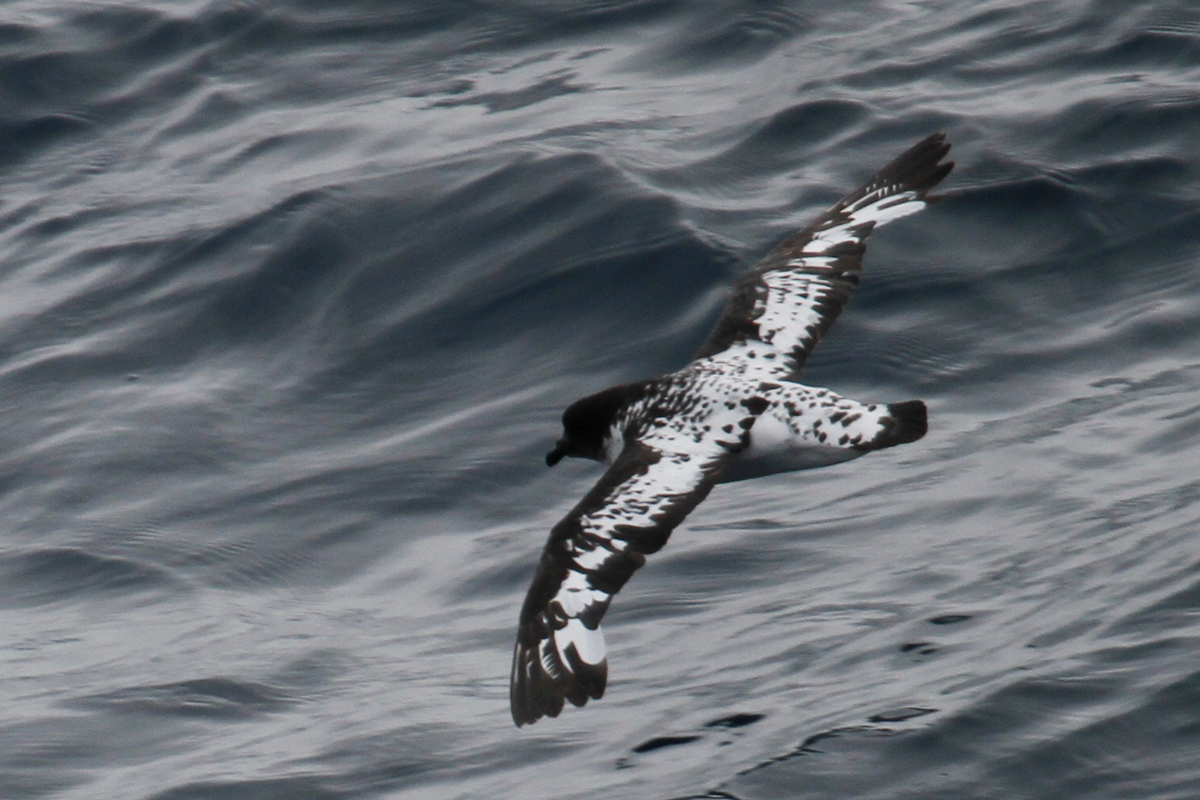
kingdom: Animalia
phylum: Chordata
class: Aves
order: Procellariiformes
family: Procellariidae
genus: Daption
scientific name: Daption capense
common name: Cape petrel
